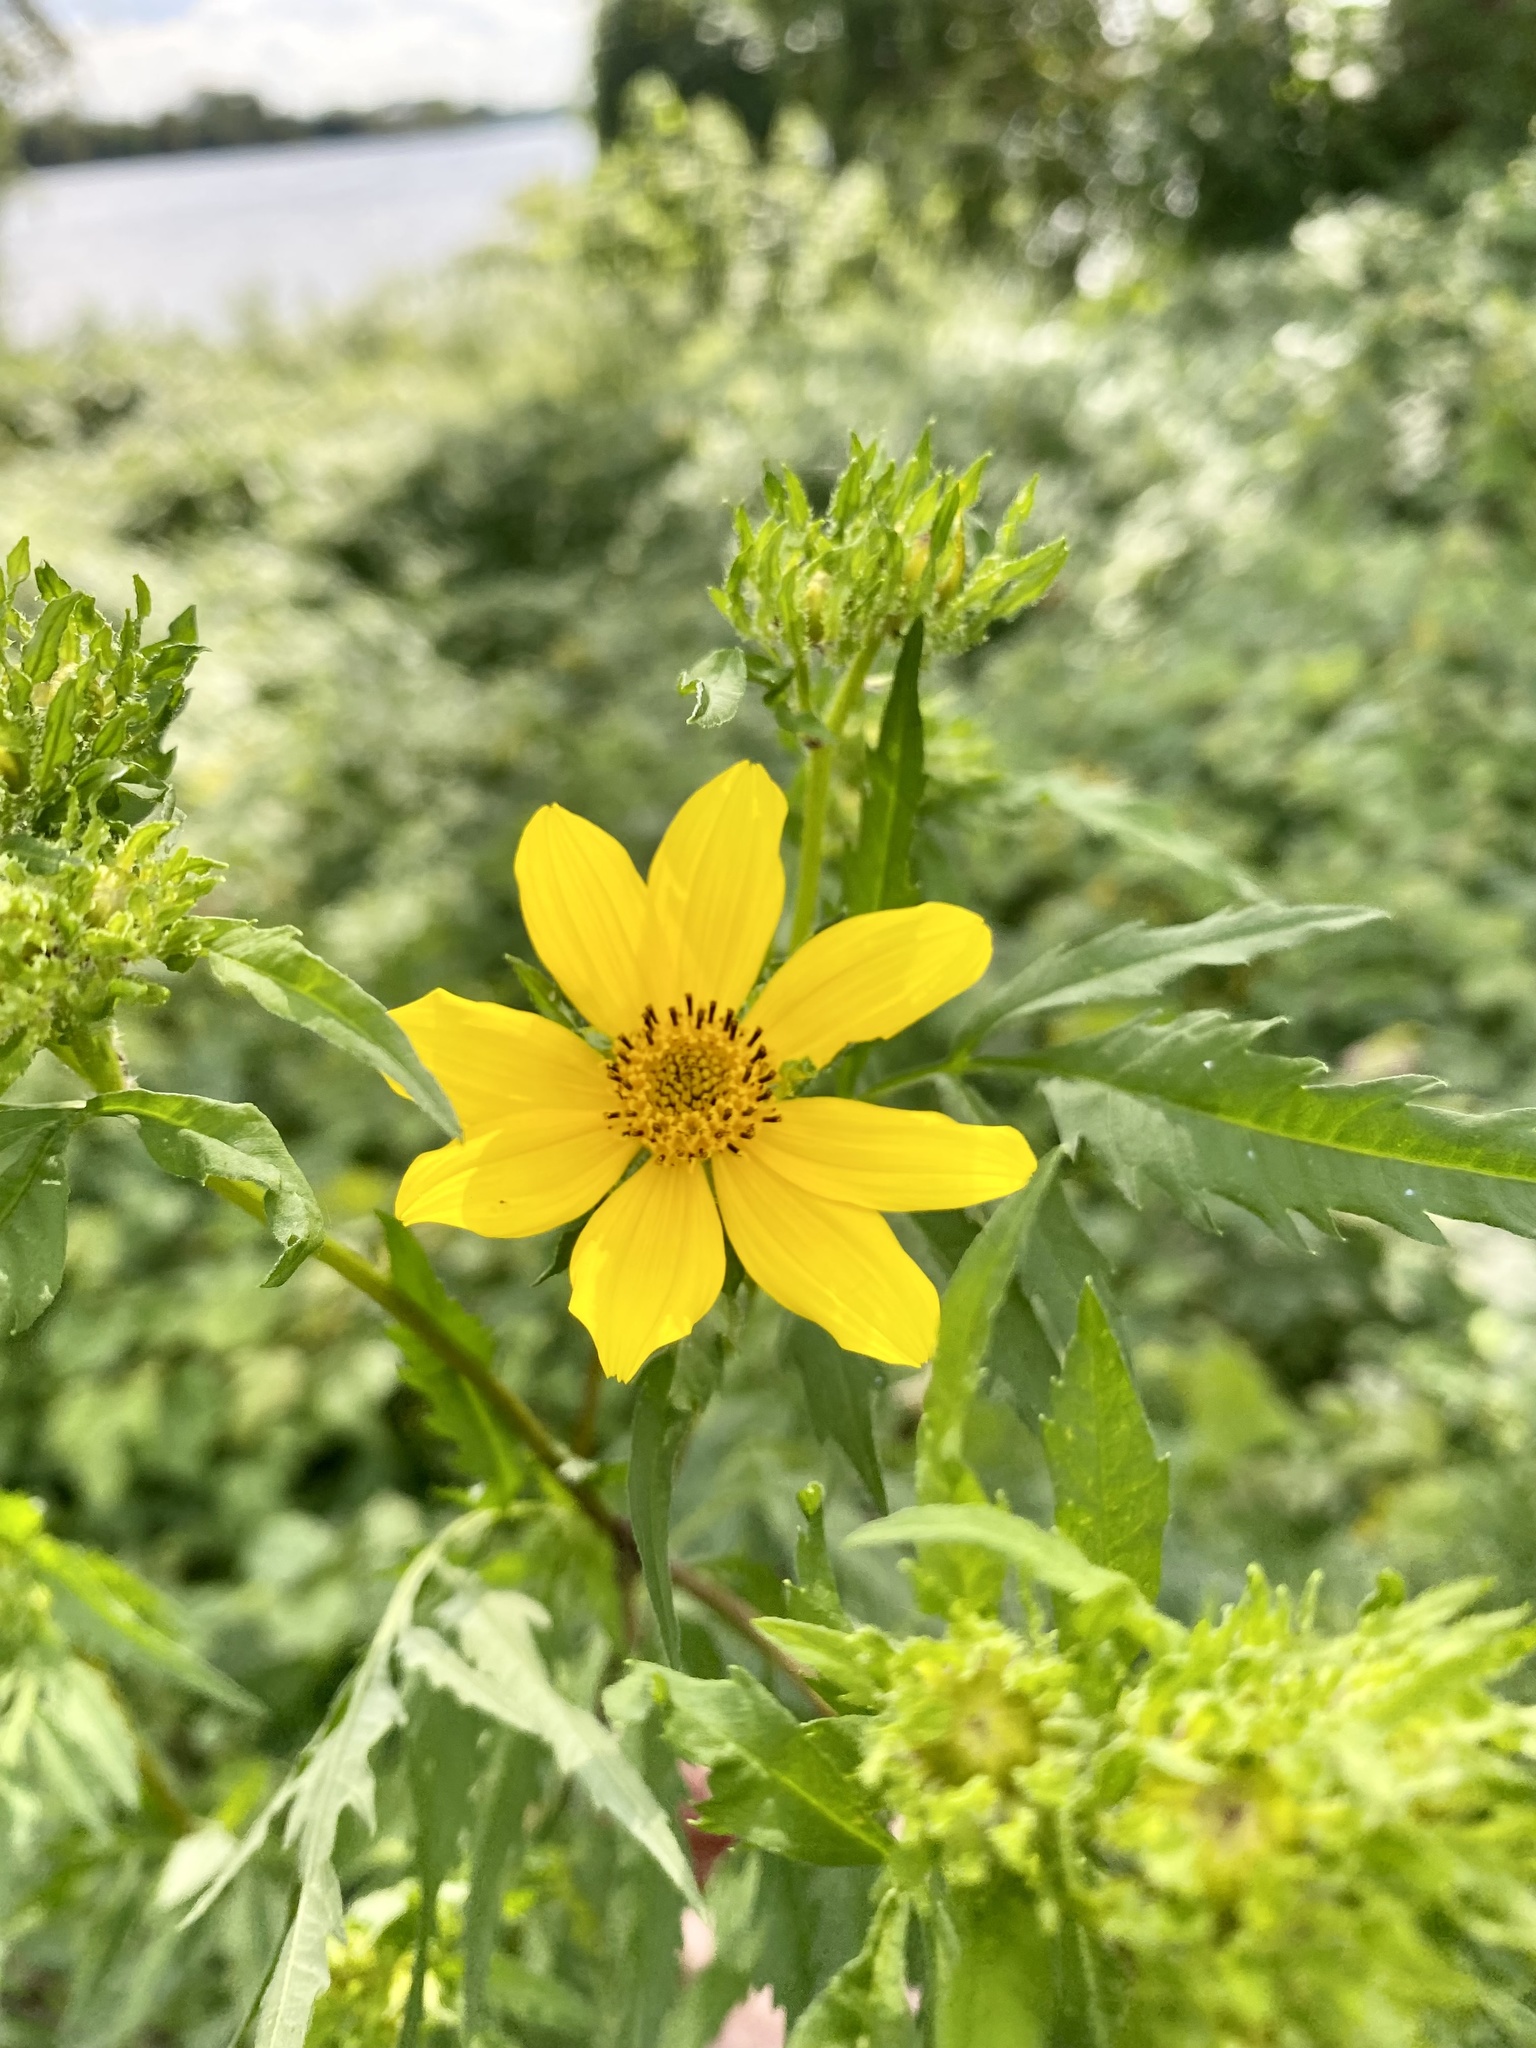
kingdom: Plantae
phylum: Tracheophyta
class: Magnoliopsida
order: Asterales
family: Asteraceae
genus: Bidens
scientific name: Bidens polylepis
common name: Awnless beggarticks
